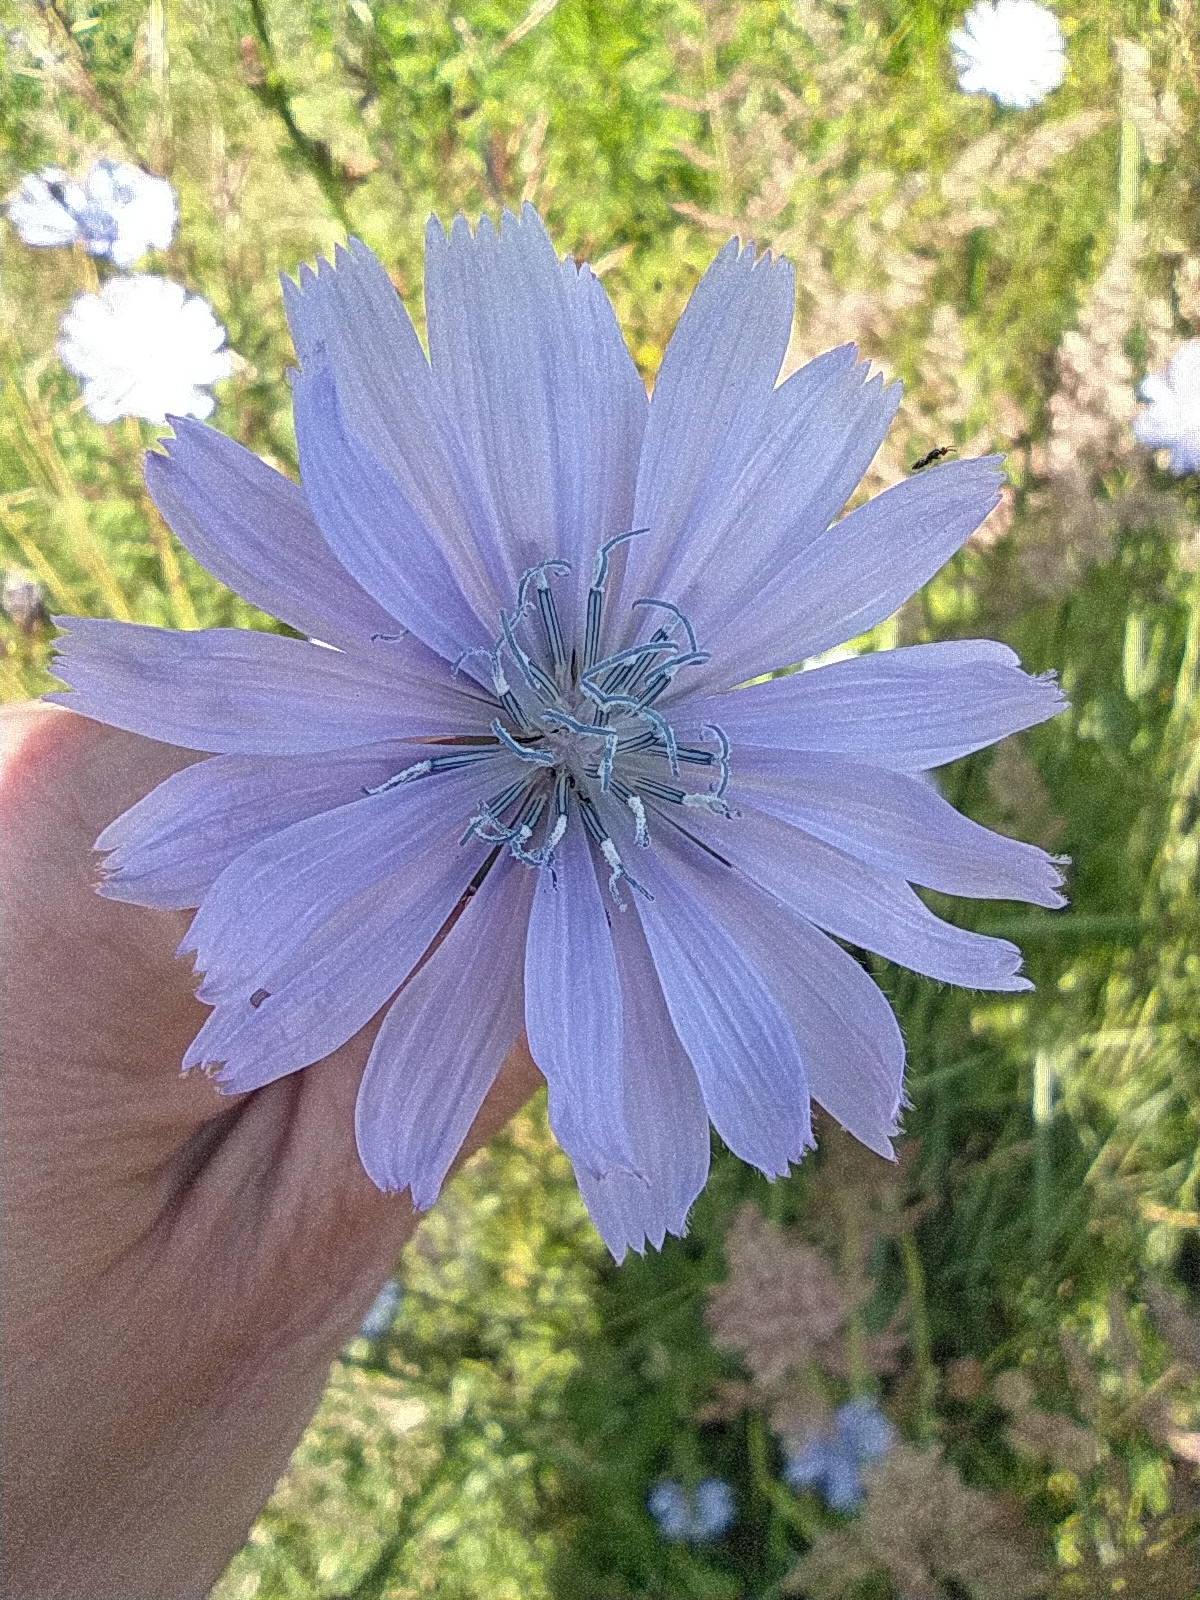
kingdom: Plantae
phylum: Tracheophyta
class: Magnoliopsida
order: Asterales
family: Asteraceae
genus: Cichorium
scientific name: Cichorium intybus
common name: Chicory
